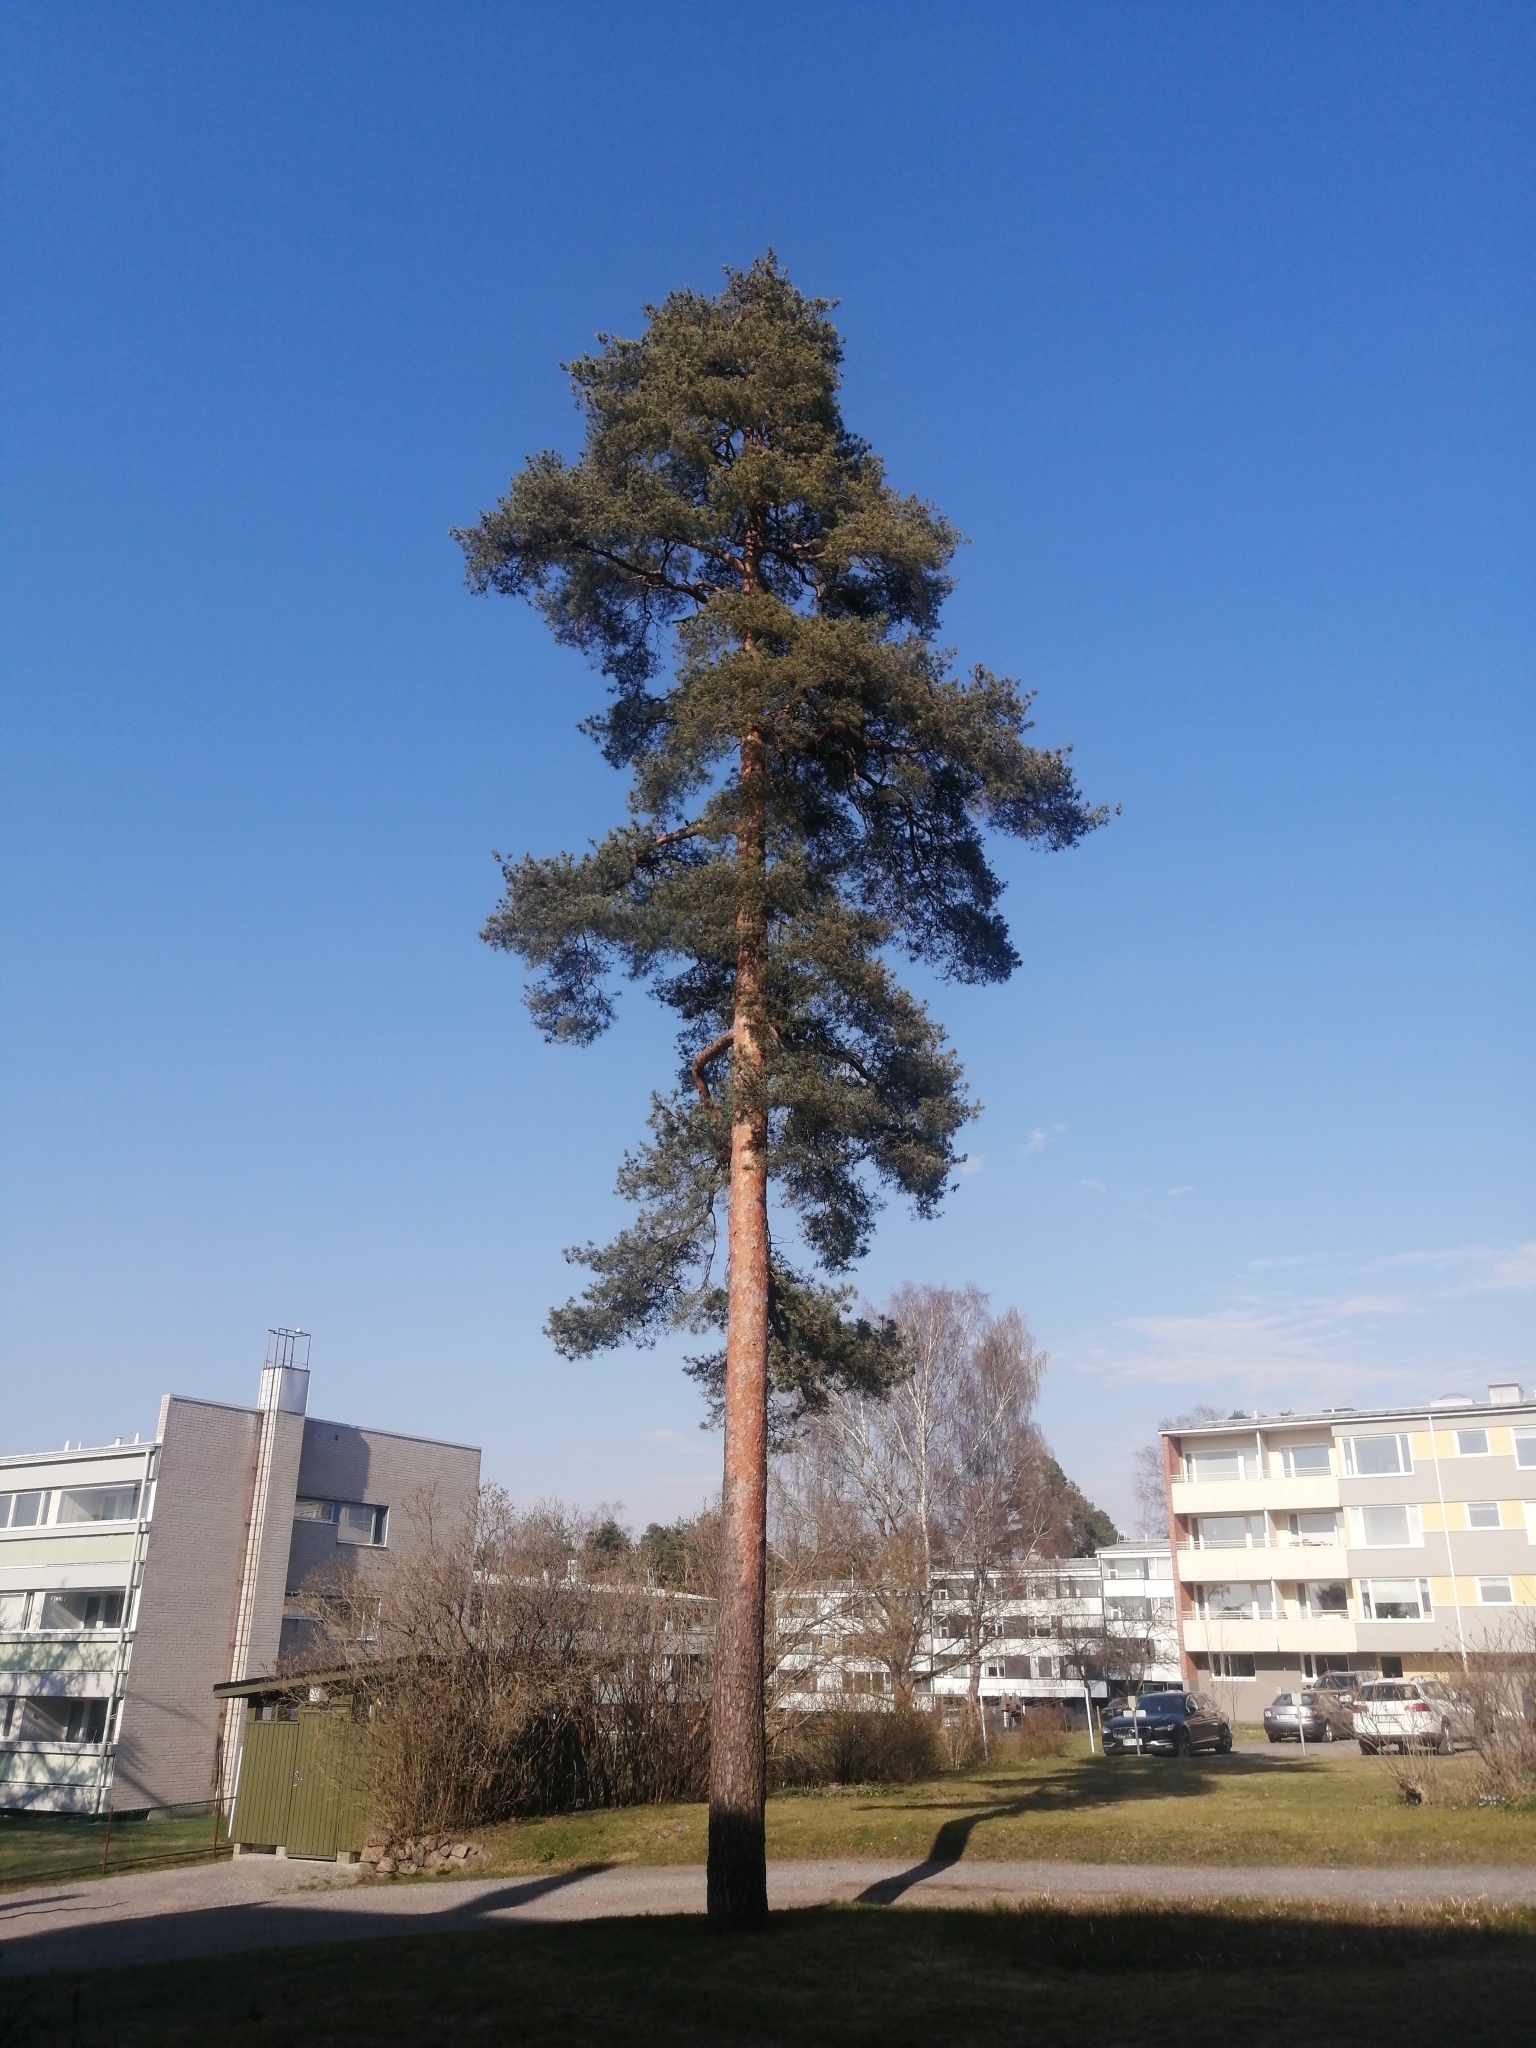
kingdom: Plantae
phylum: Tracheophyta
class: Pinopsida
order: Pinales
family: Pinaceae
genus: Pinus
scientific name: Pinus sylvestris
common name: Scots pine
